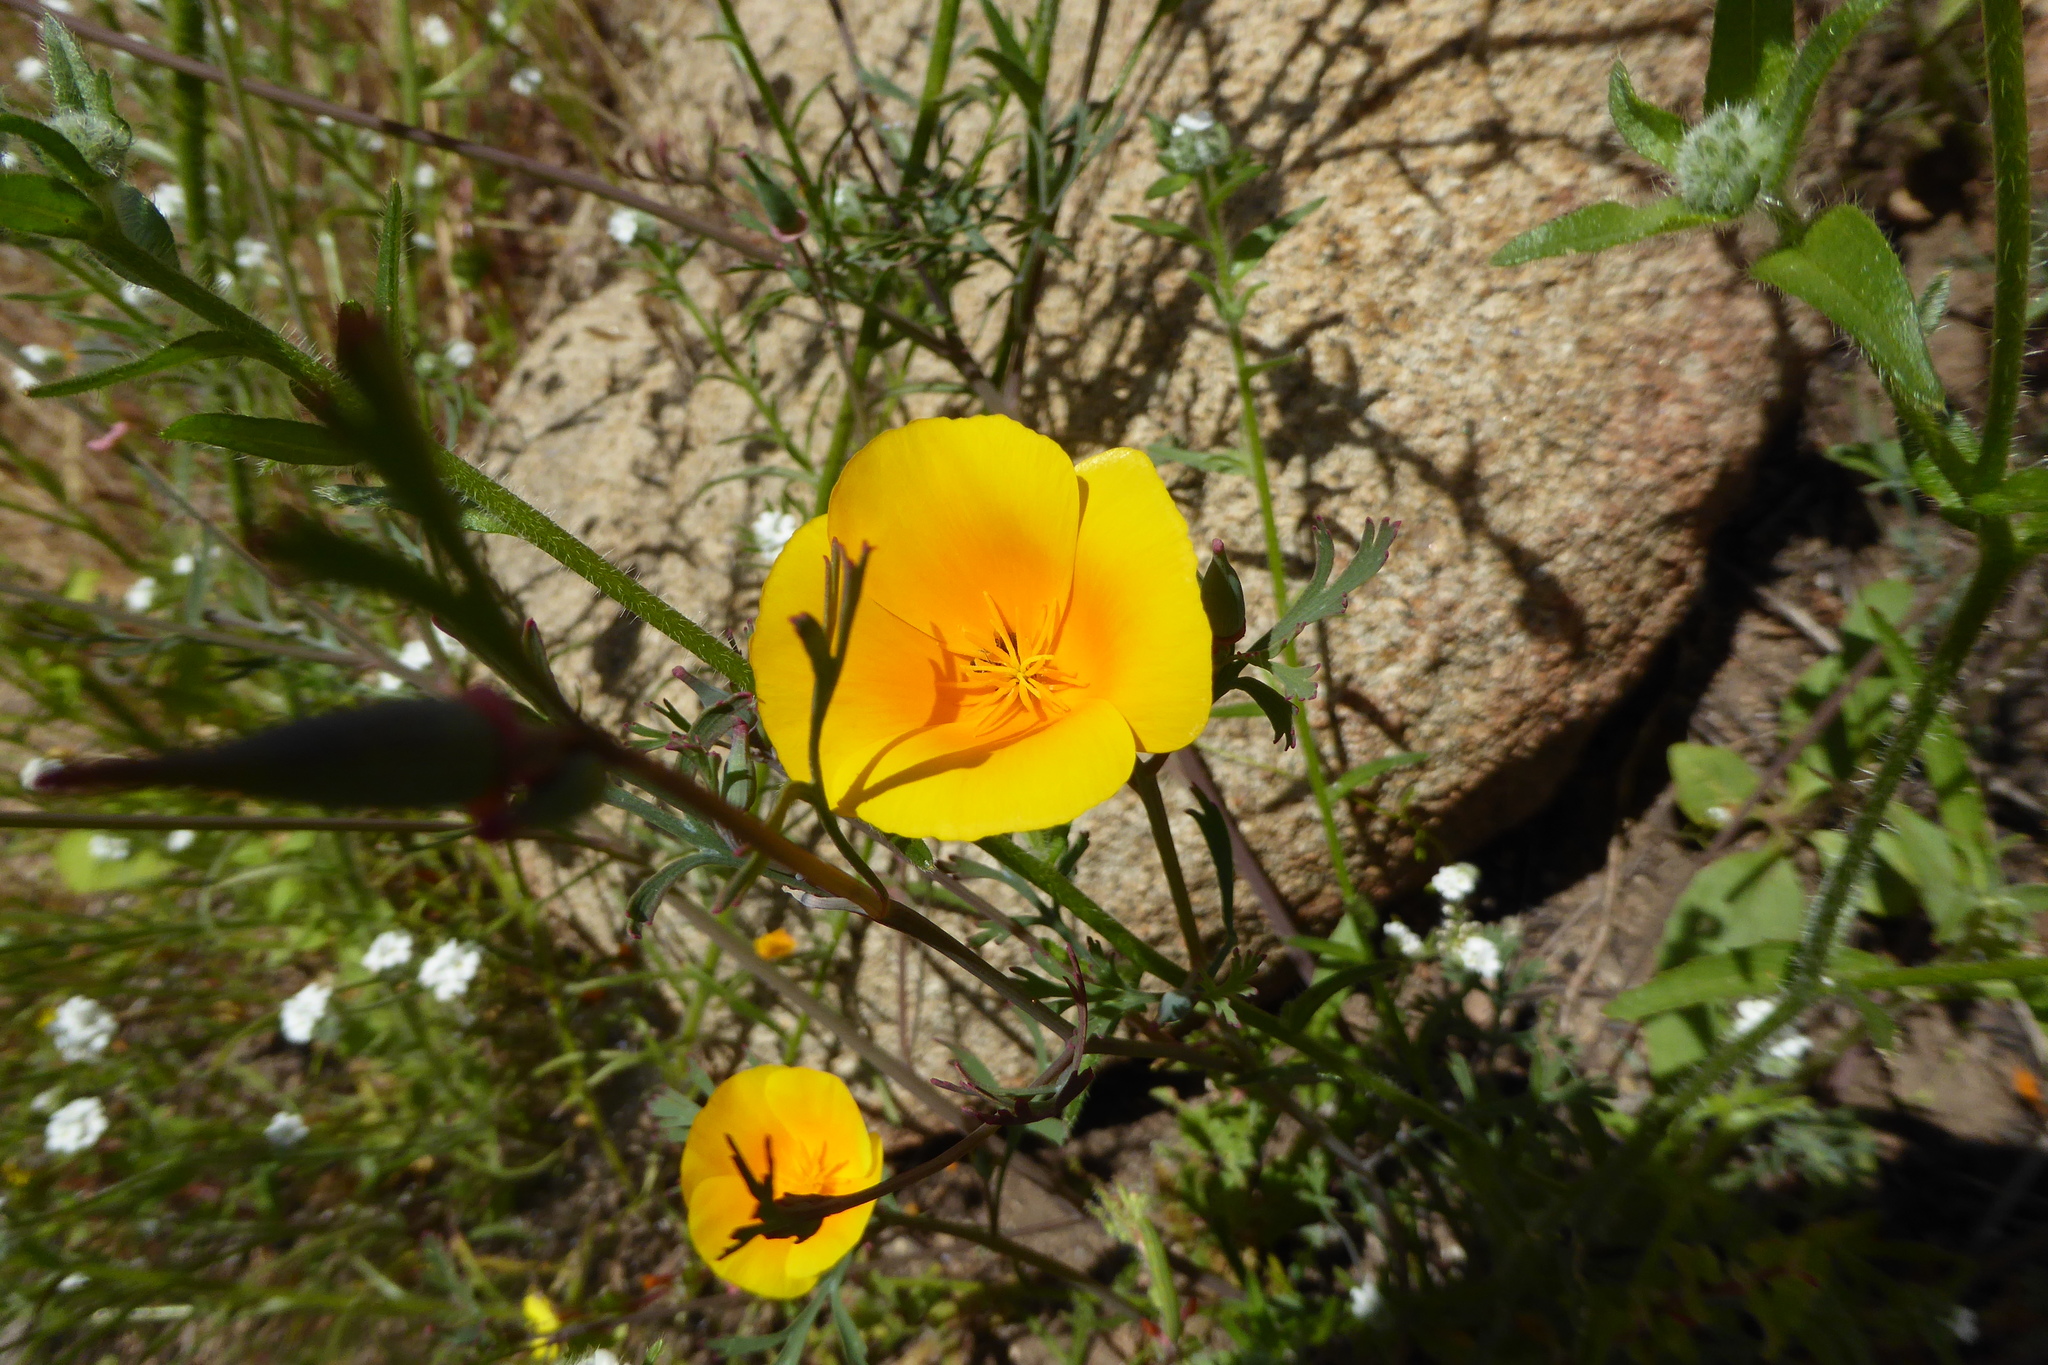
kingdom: Plantae
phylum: Tracheophyta
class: Magnoliopsida
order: Ranunculales
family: Papaveraceae
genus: Eschscholzia
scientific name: Eschscholzia californica
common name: California poppy
